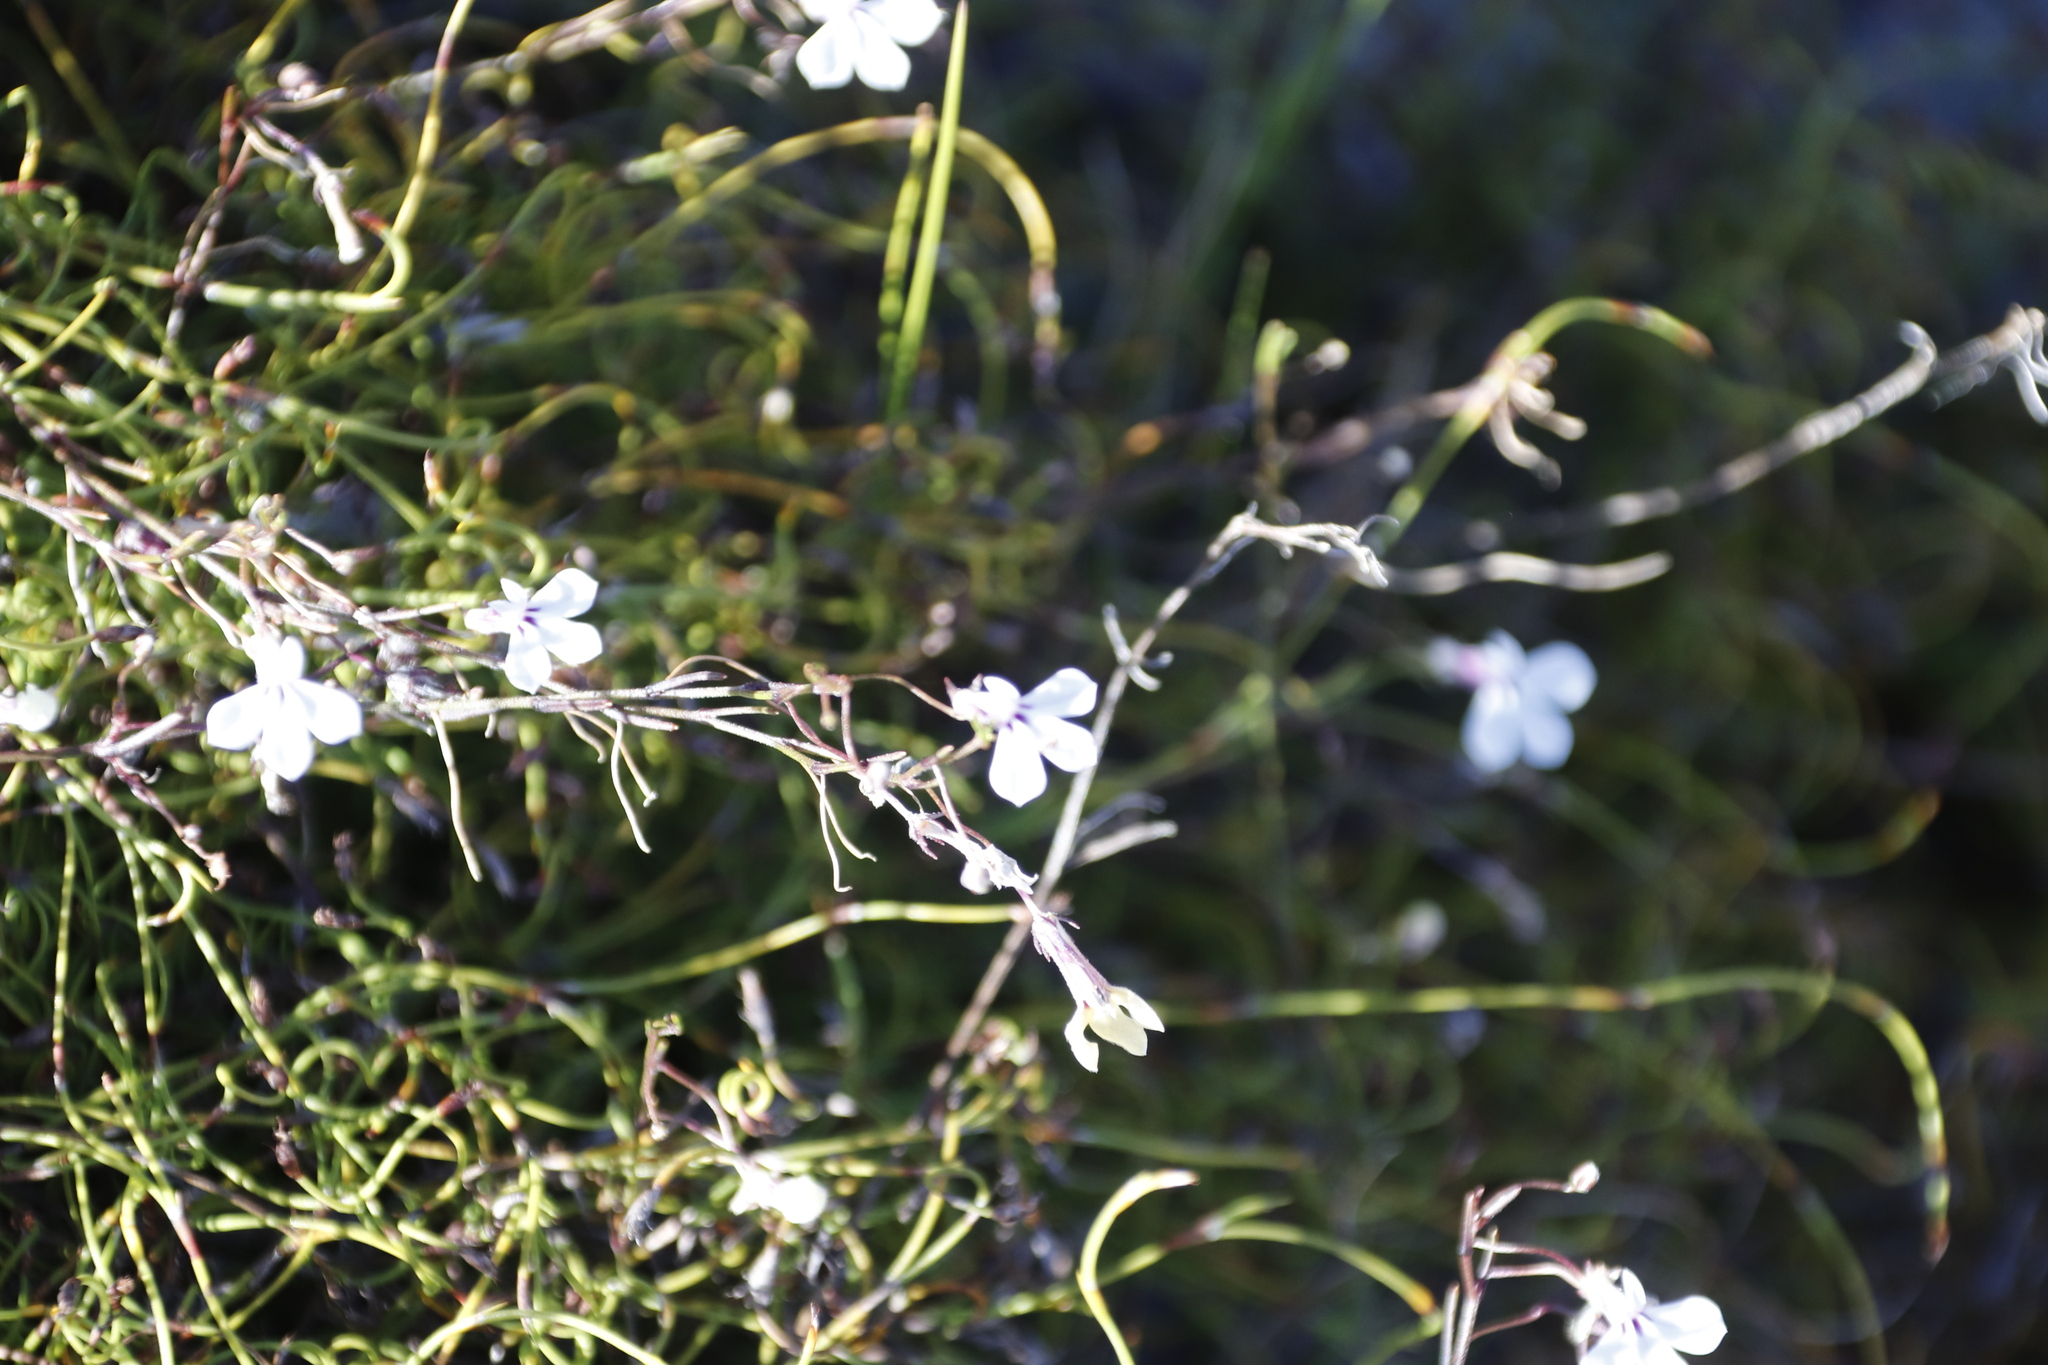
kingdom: Plantae
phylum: Tracheophyta
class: Magnoliopsida
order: Asterales
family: Campanulaceae
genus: Lobelia
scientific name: Lobelia setacea
